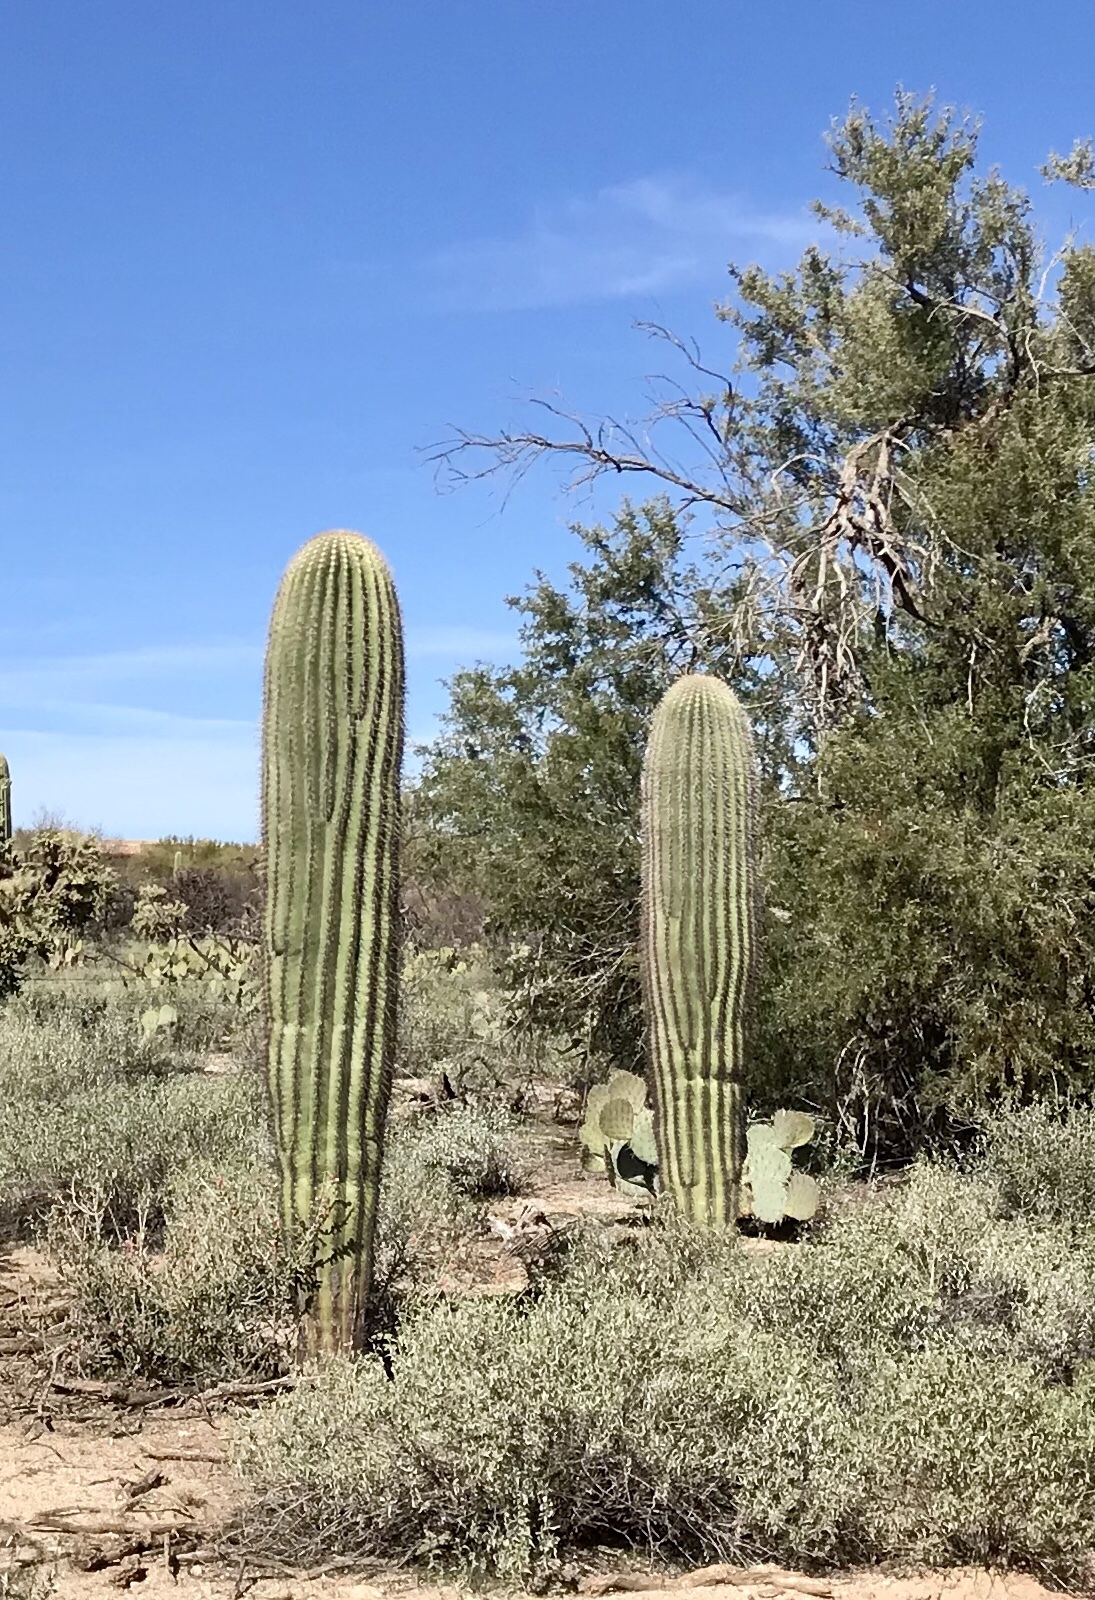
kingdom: Plantae
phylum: Tracheophyta
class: Magnoliopsida
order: Caryophyllales
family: Cactaceae
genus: Carnegiea
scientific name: Carnegiea gigantea
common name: Saguaro
